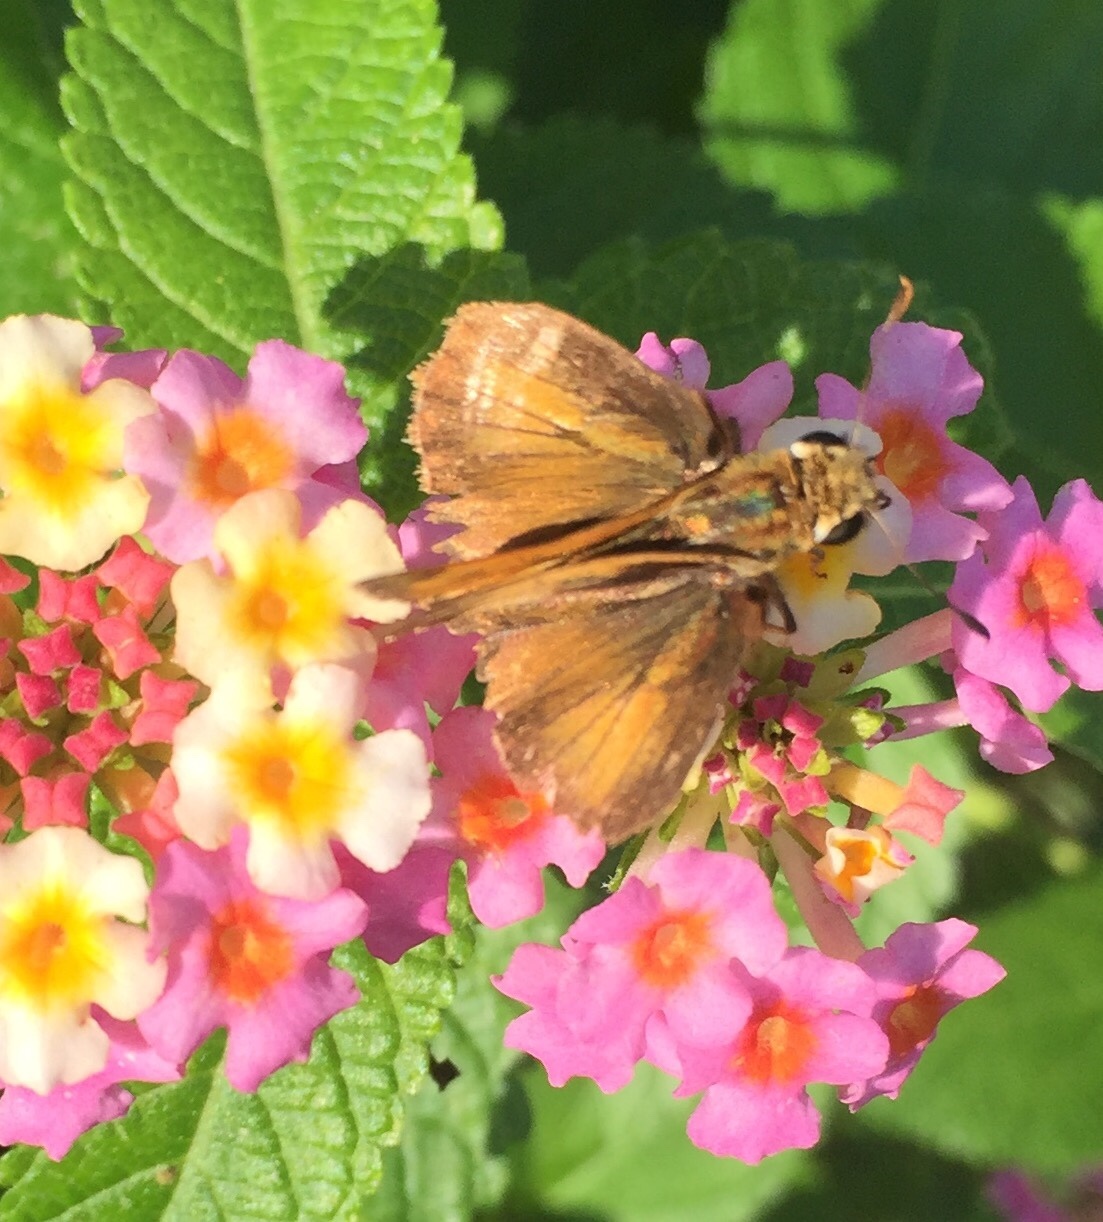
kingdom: Animalia
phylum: Arthropoda
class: Insecta
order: Lepidoptera
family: Hesperiidae
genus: Polites
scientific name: Polites vibex
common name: Whirlabout
